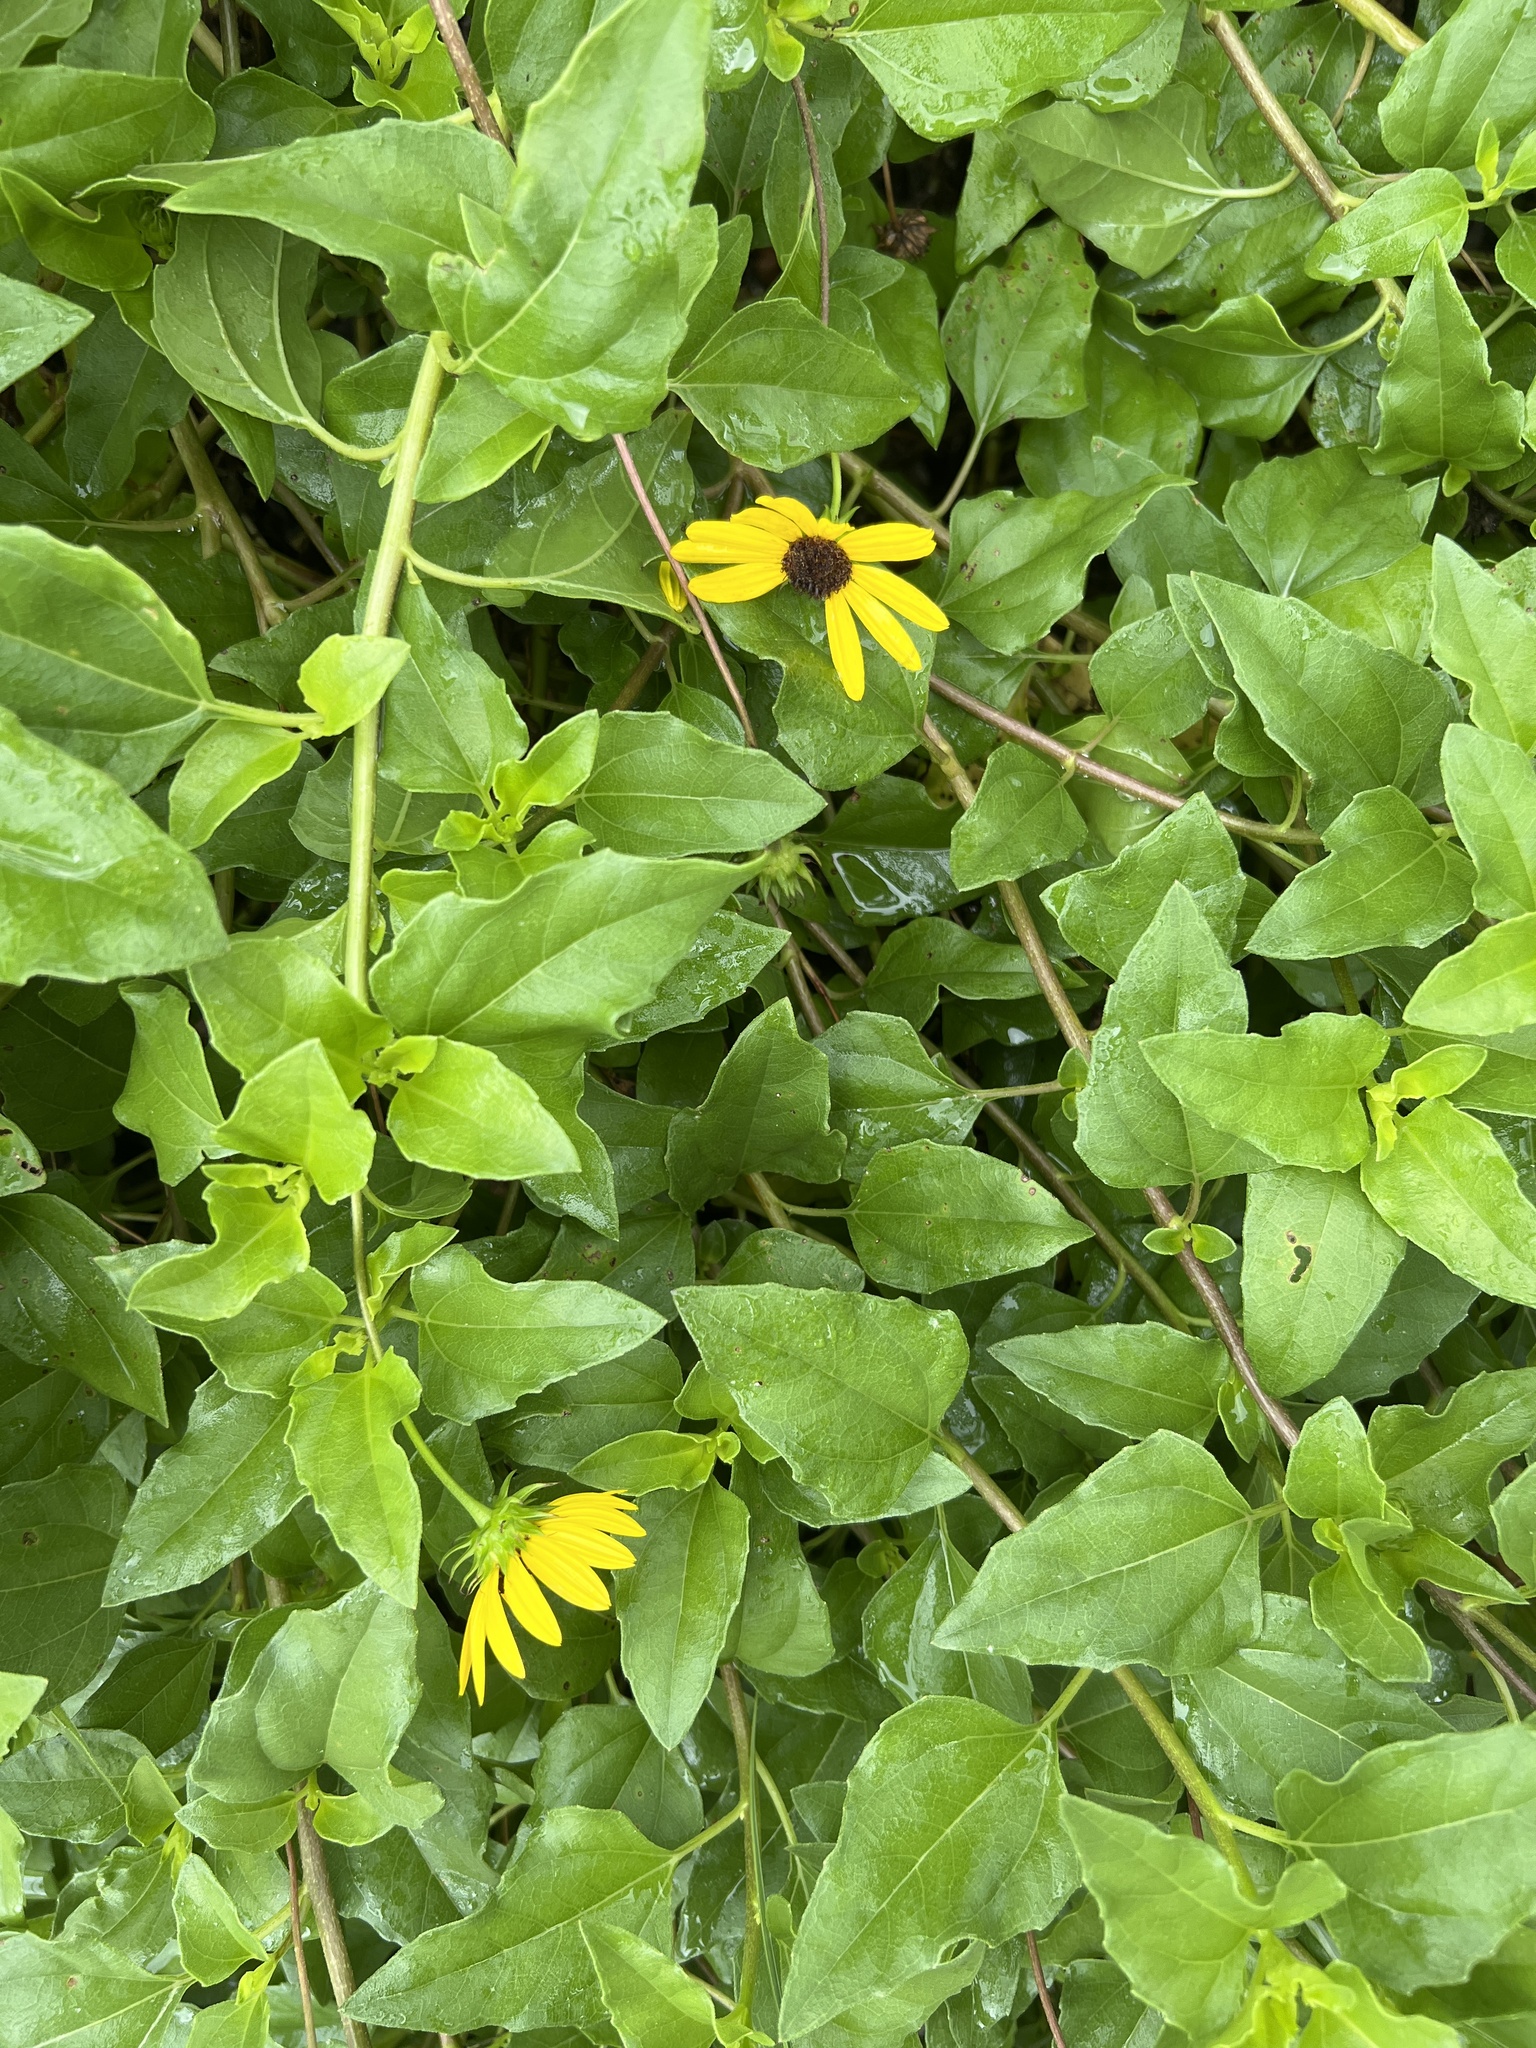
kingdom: Plantae
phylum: Tracheophyta
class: Magnoliopsida
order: Asterales
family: Asteraceae
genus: Helianthus
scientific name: Helianthus debilis
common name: Weak sunflower
